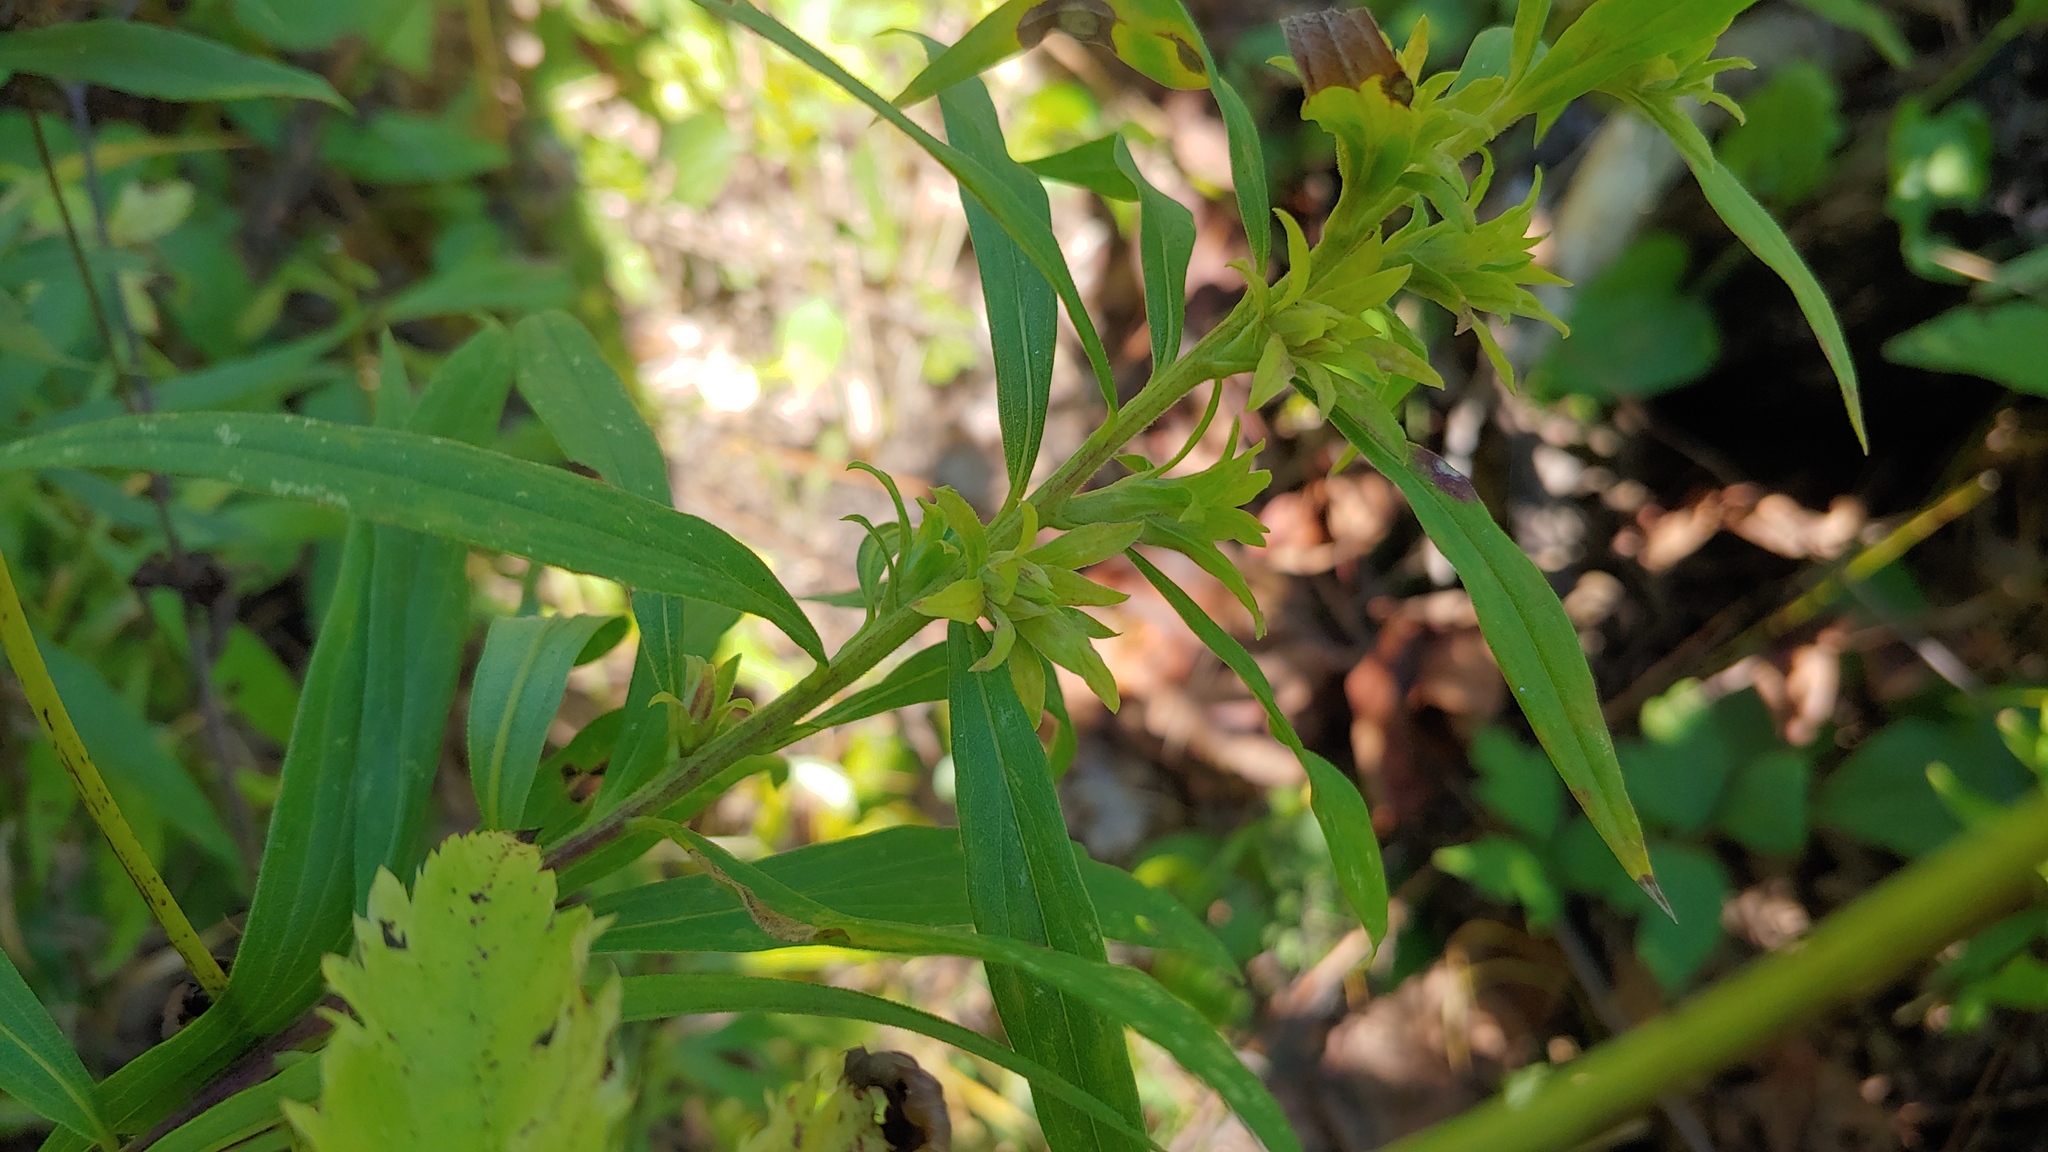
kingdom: Animalia
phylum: Arthropoda
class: Insecta
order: Diptera
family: Tephritidae
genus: Procecidochares
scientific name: Procecidochares atra
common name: Goldenrod brussels sprout gall fly
